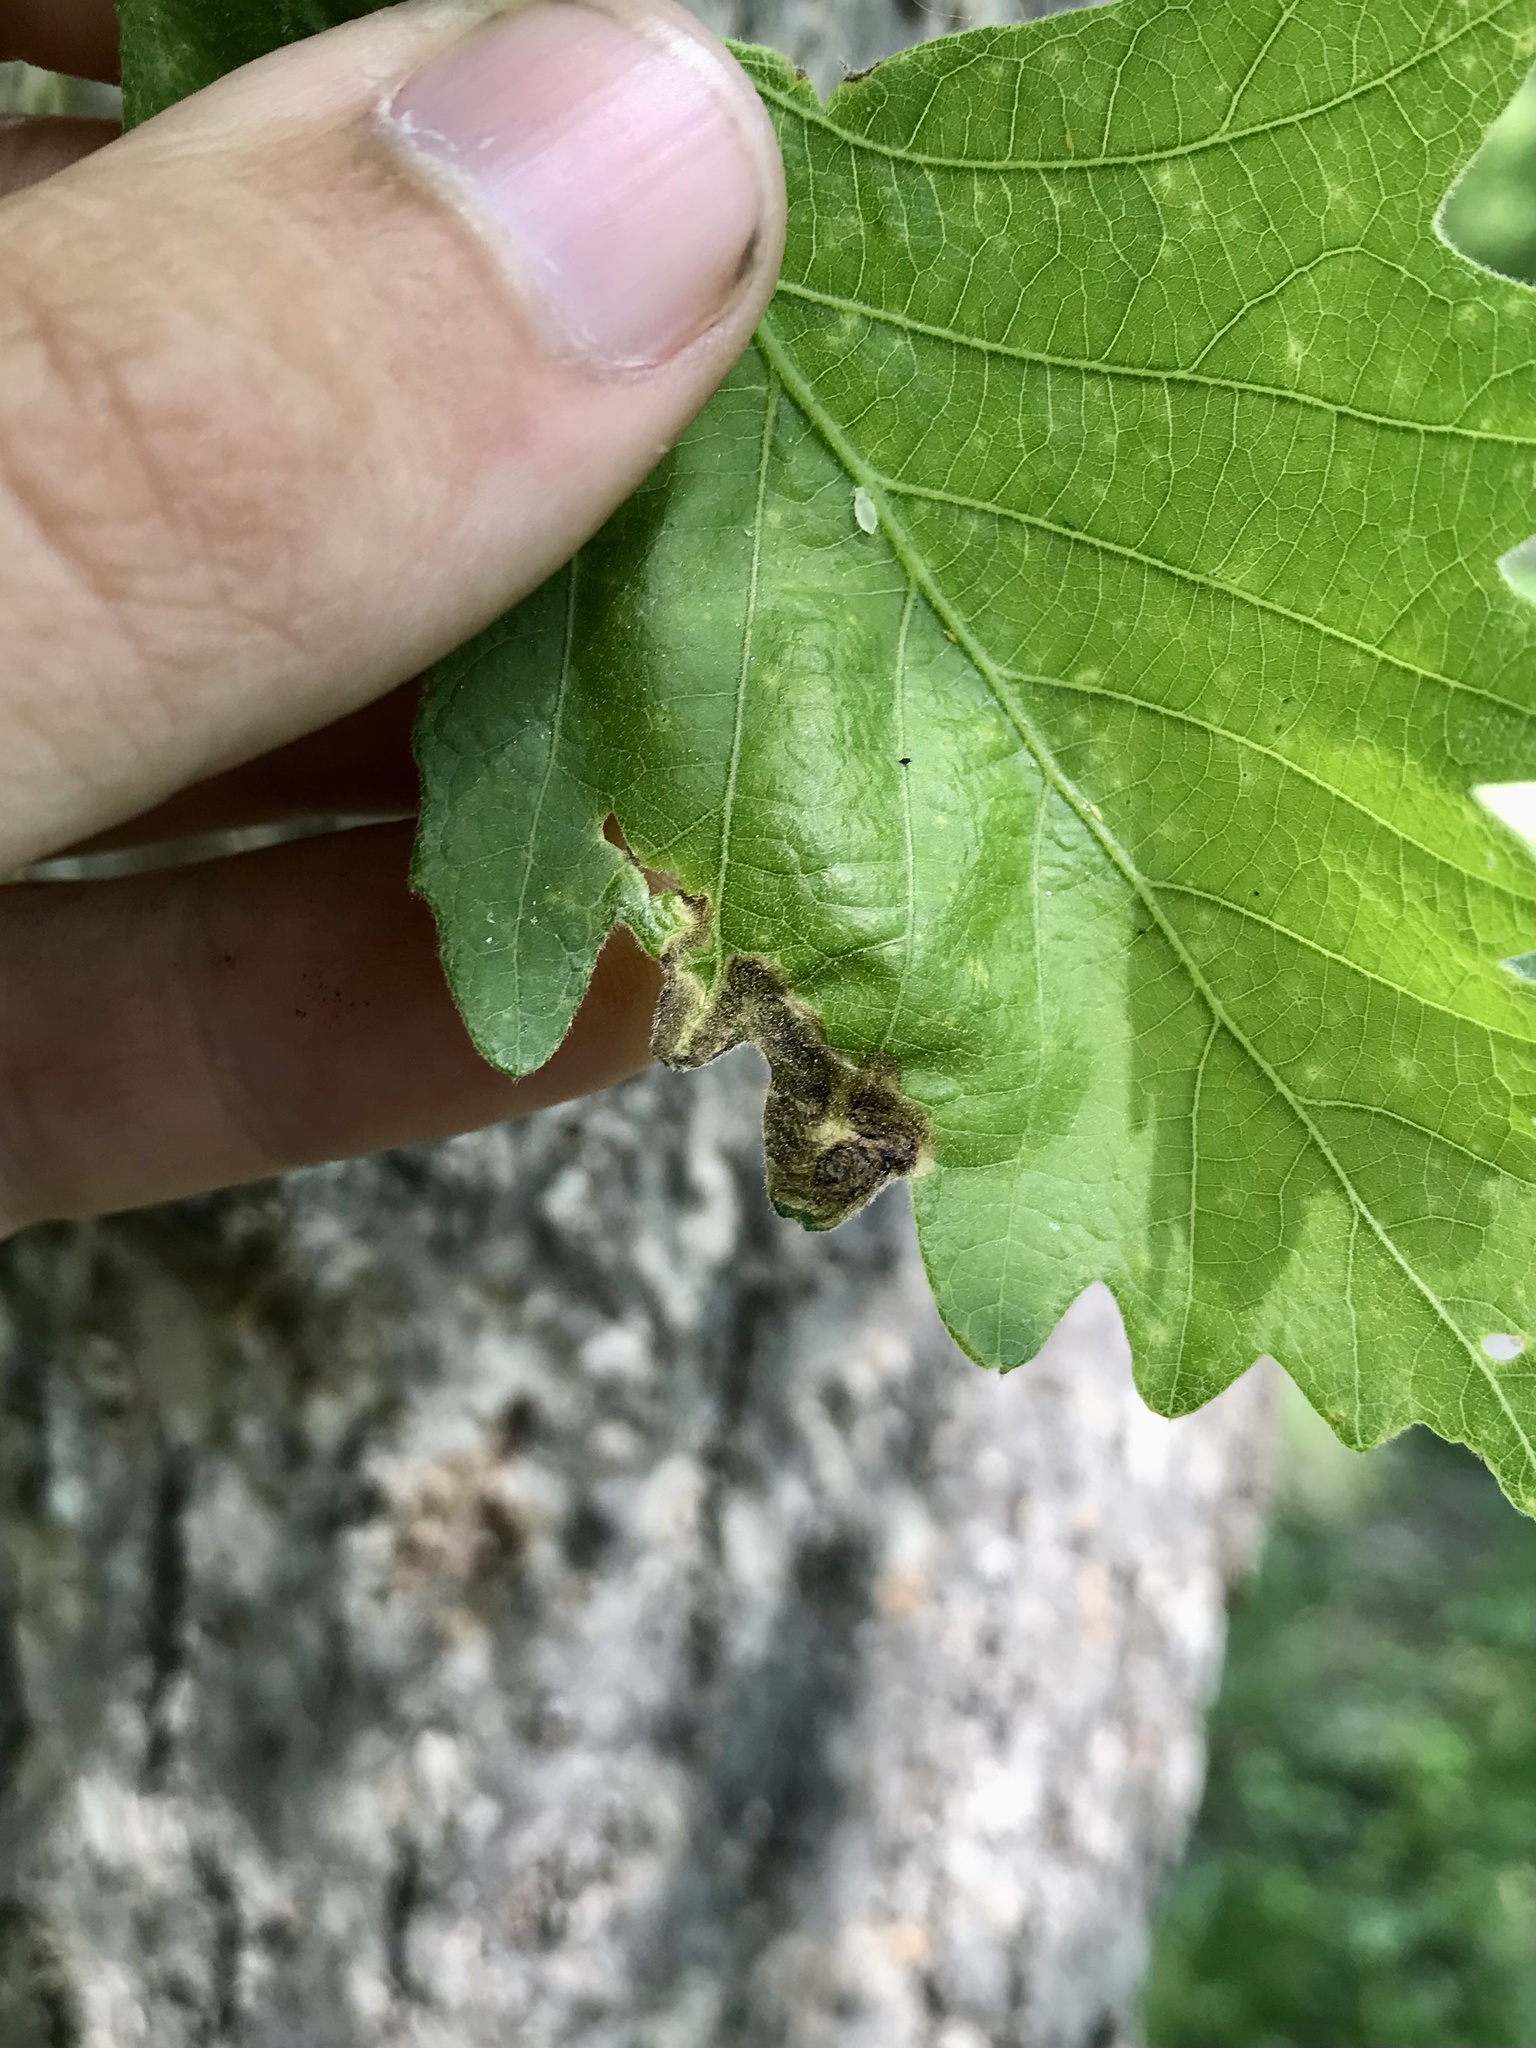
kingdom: Animalia
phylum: Arthropoda
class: Insecta
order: Diptera
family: Agromyzidae
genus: Japanagromyza
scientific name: Japanagromyza viridula
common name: Oak shothole leafminer
